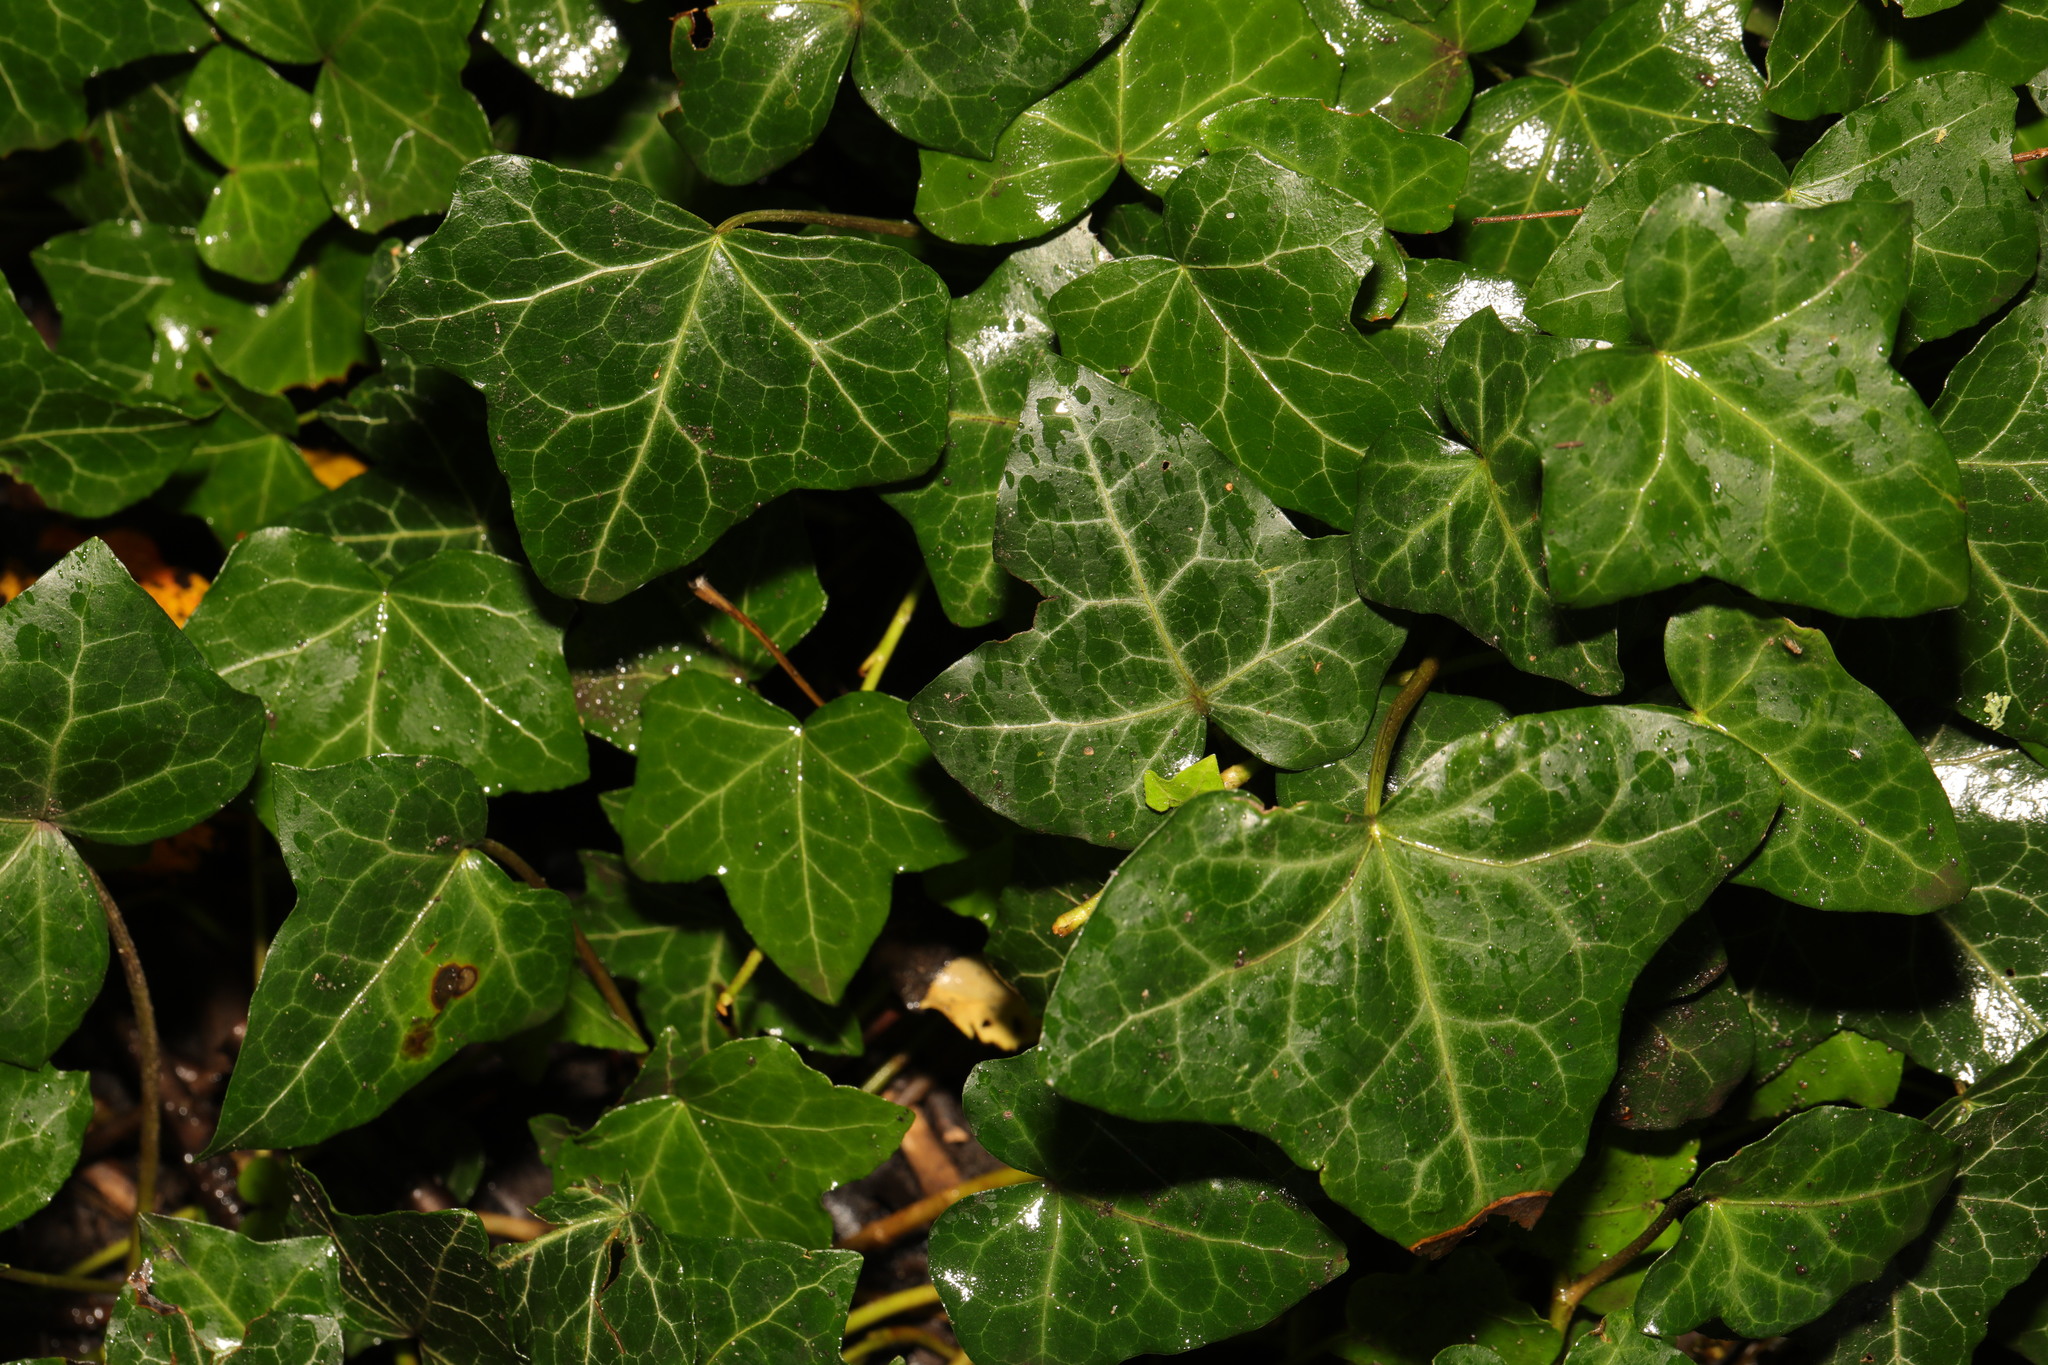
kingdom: Plantae
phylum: Tracheophyta
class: Magnoliopsida
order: Apiales
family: Araliaceae
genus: Hedera
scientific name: Hedera helix
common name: Ivy
